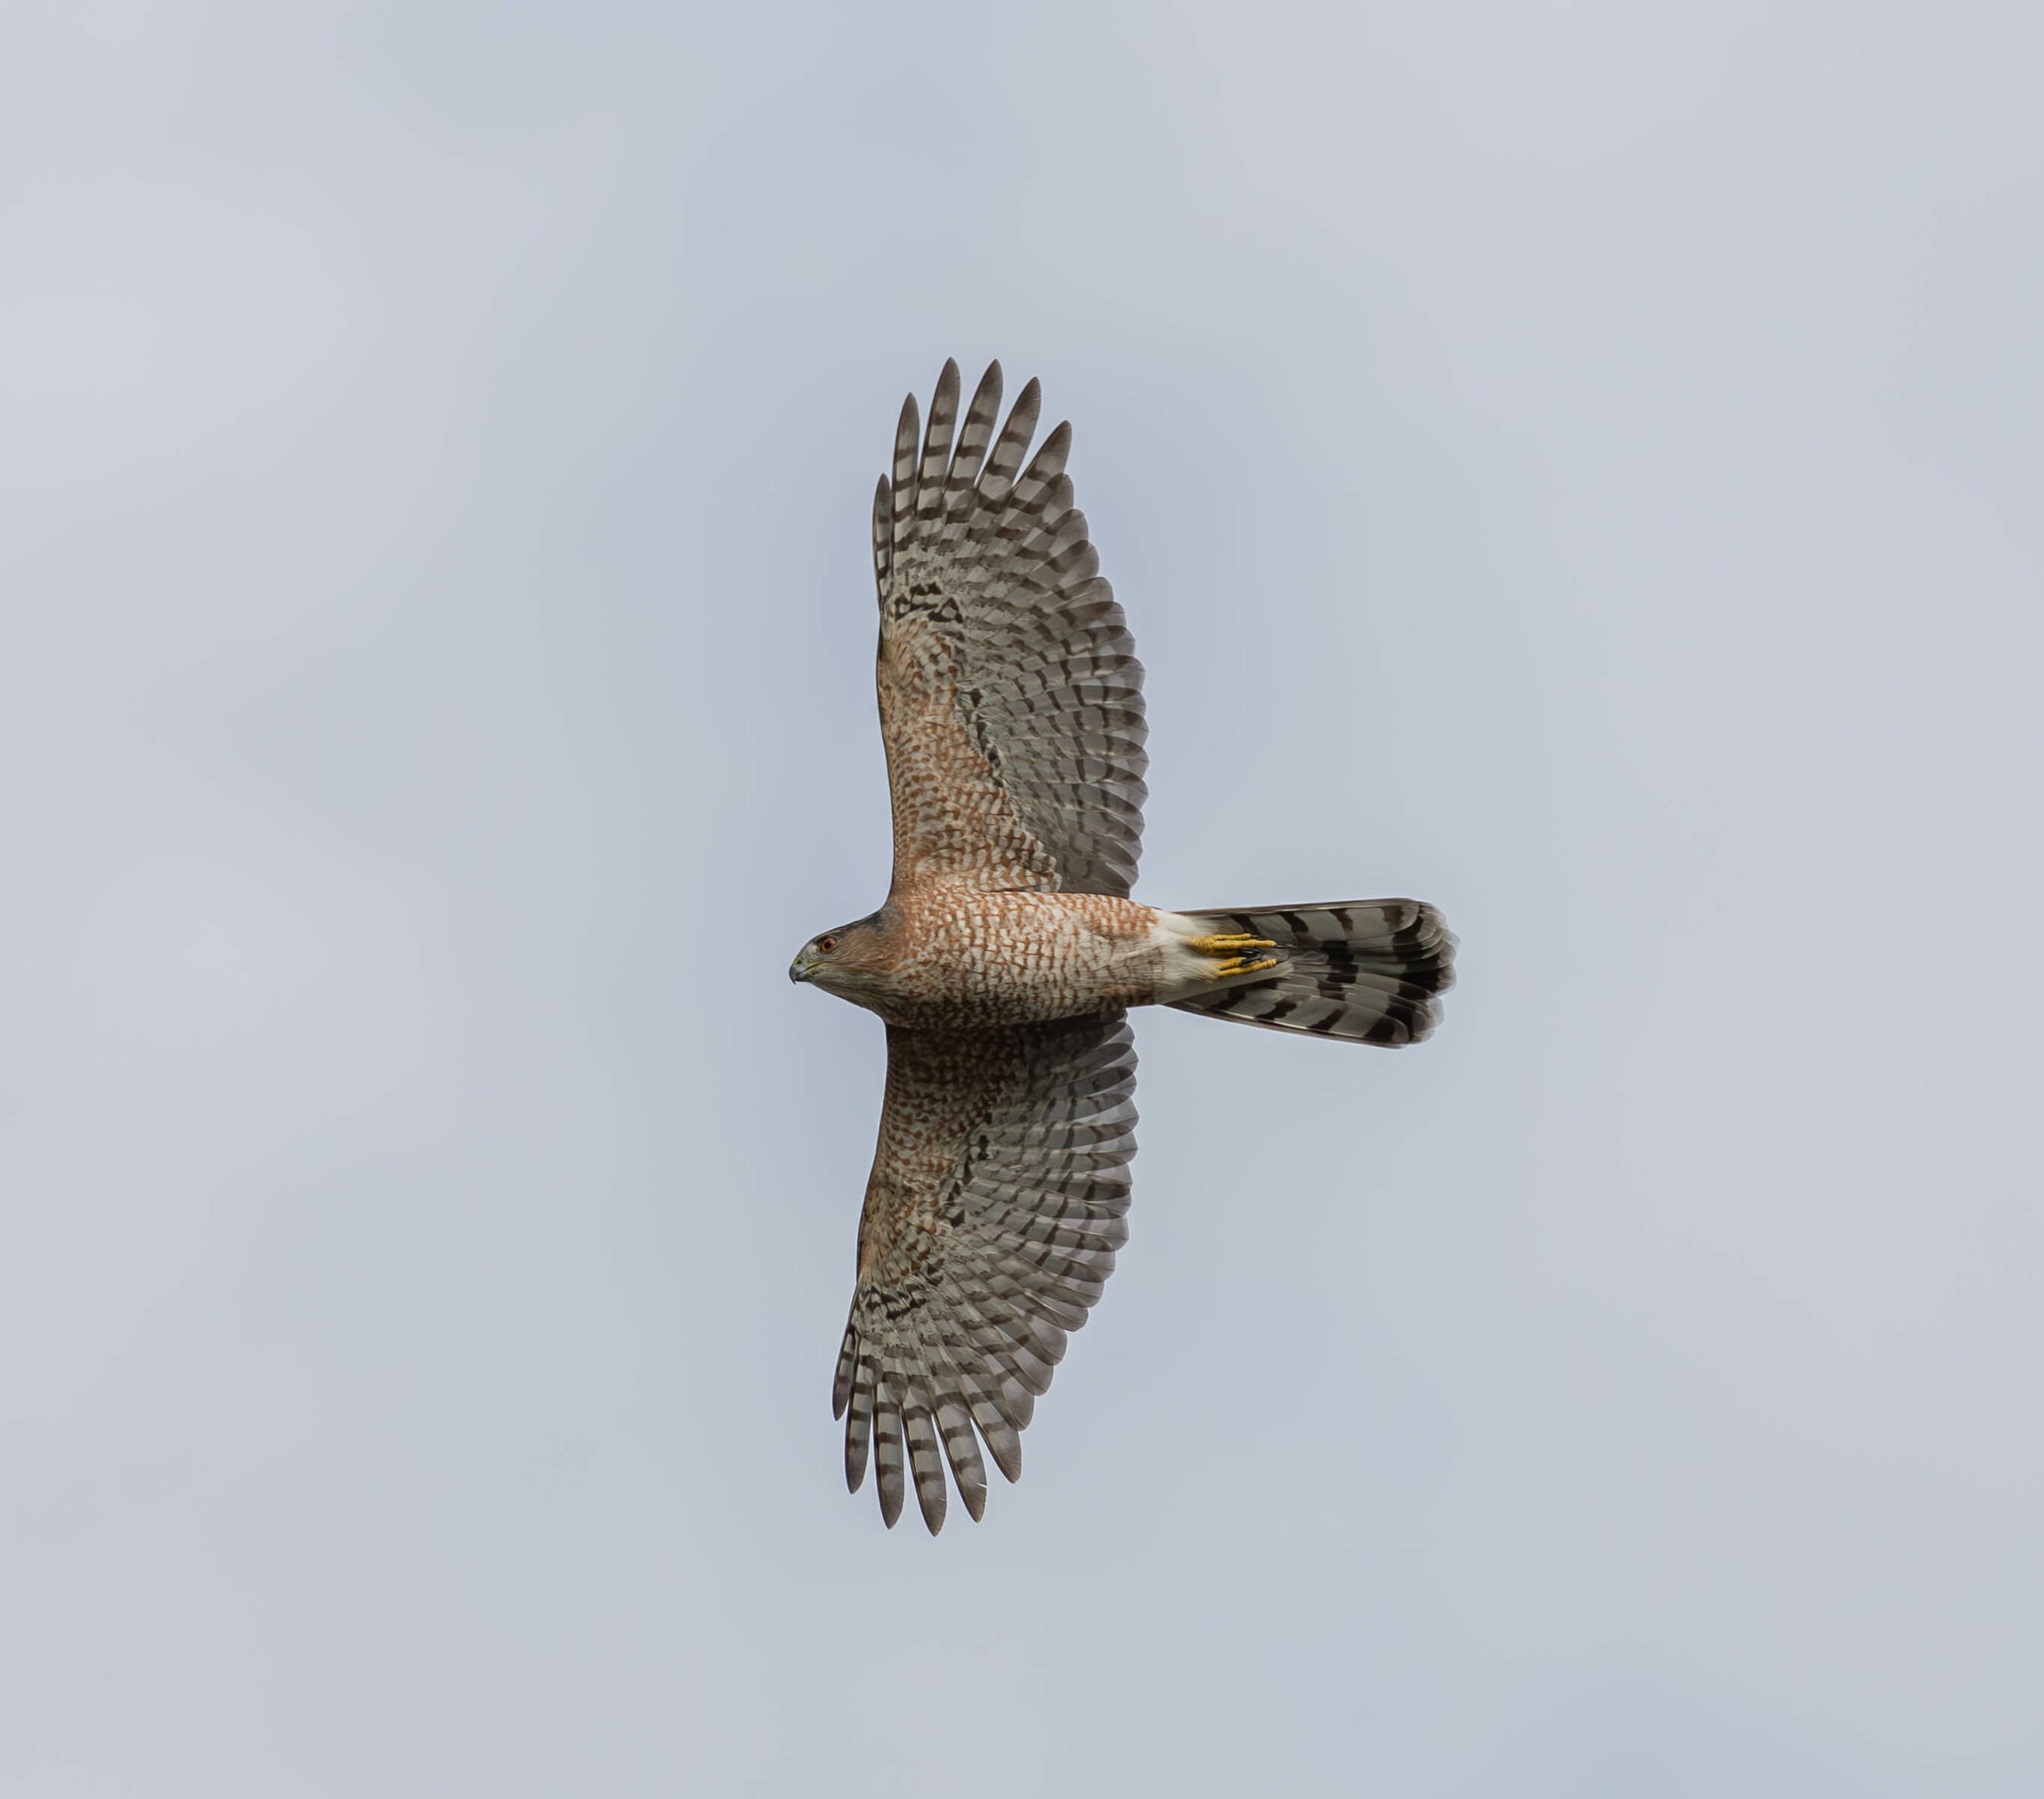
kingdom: Animalia
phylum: Chordata
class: Aves
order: Accipitriformes
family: Accipitridae
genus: Accipiter
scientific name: Accipiter cooperii
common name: Cooper's hawk
